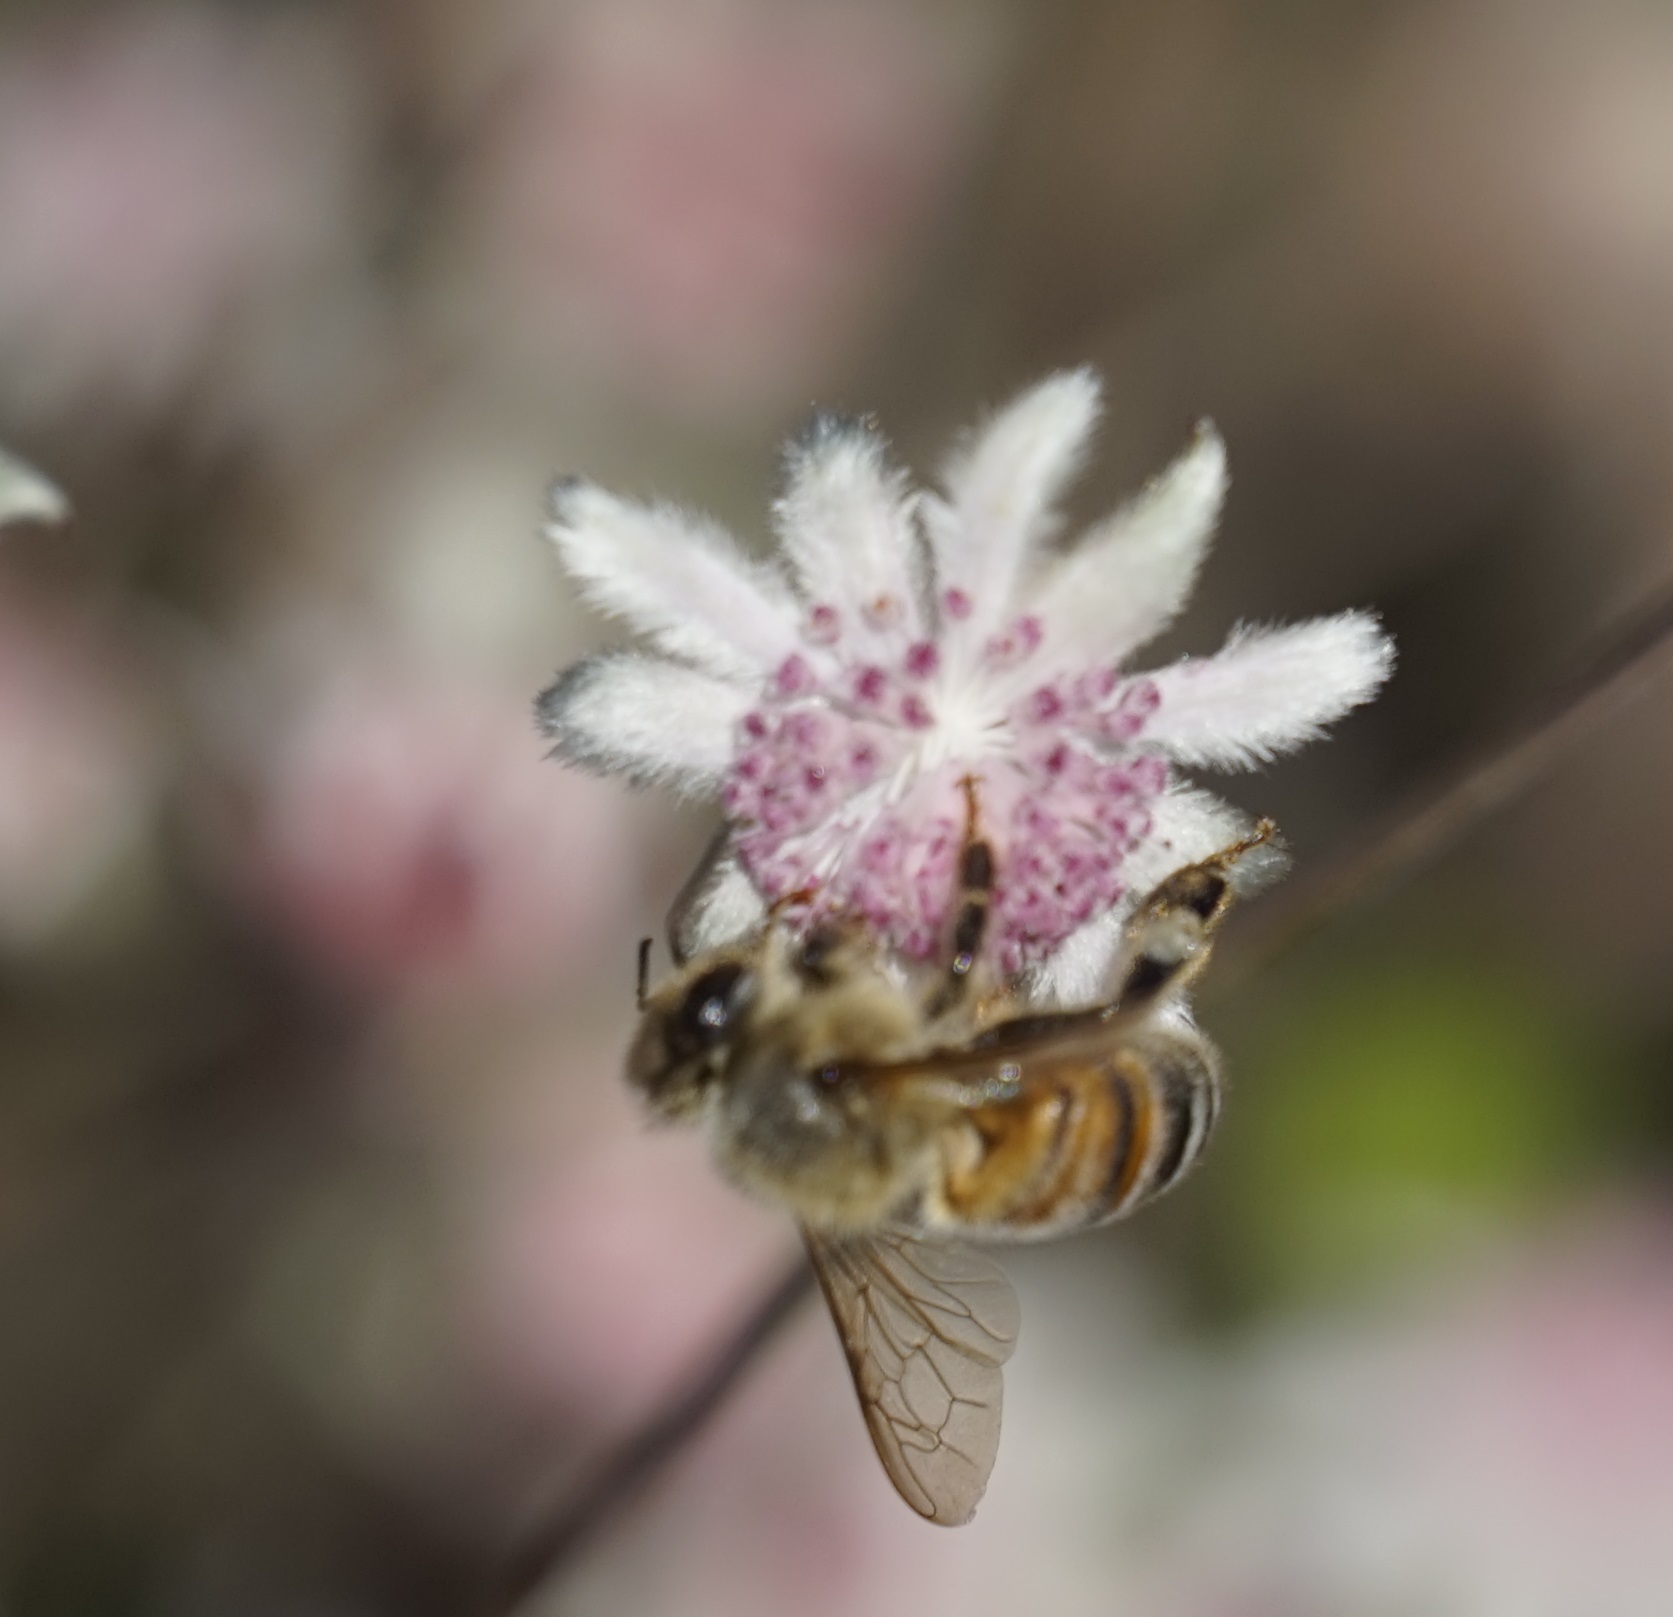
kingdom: Animalia
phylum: Arthropoda
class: Insecta
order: Hymenoptera
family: Apidae
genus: Apis
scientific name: Apis mellifera
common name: Honey bee
